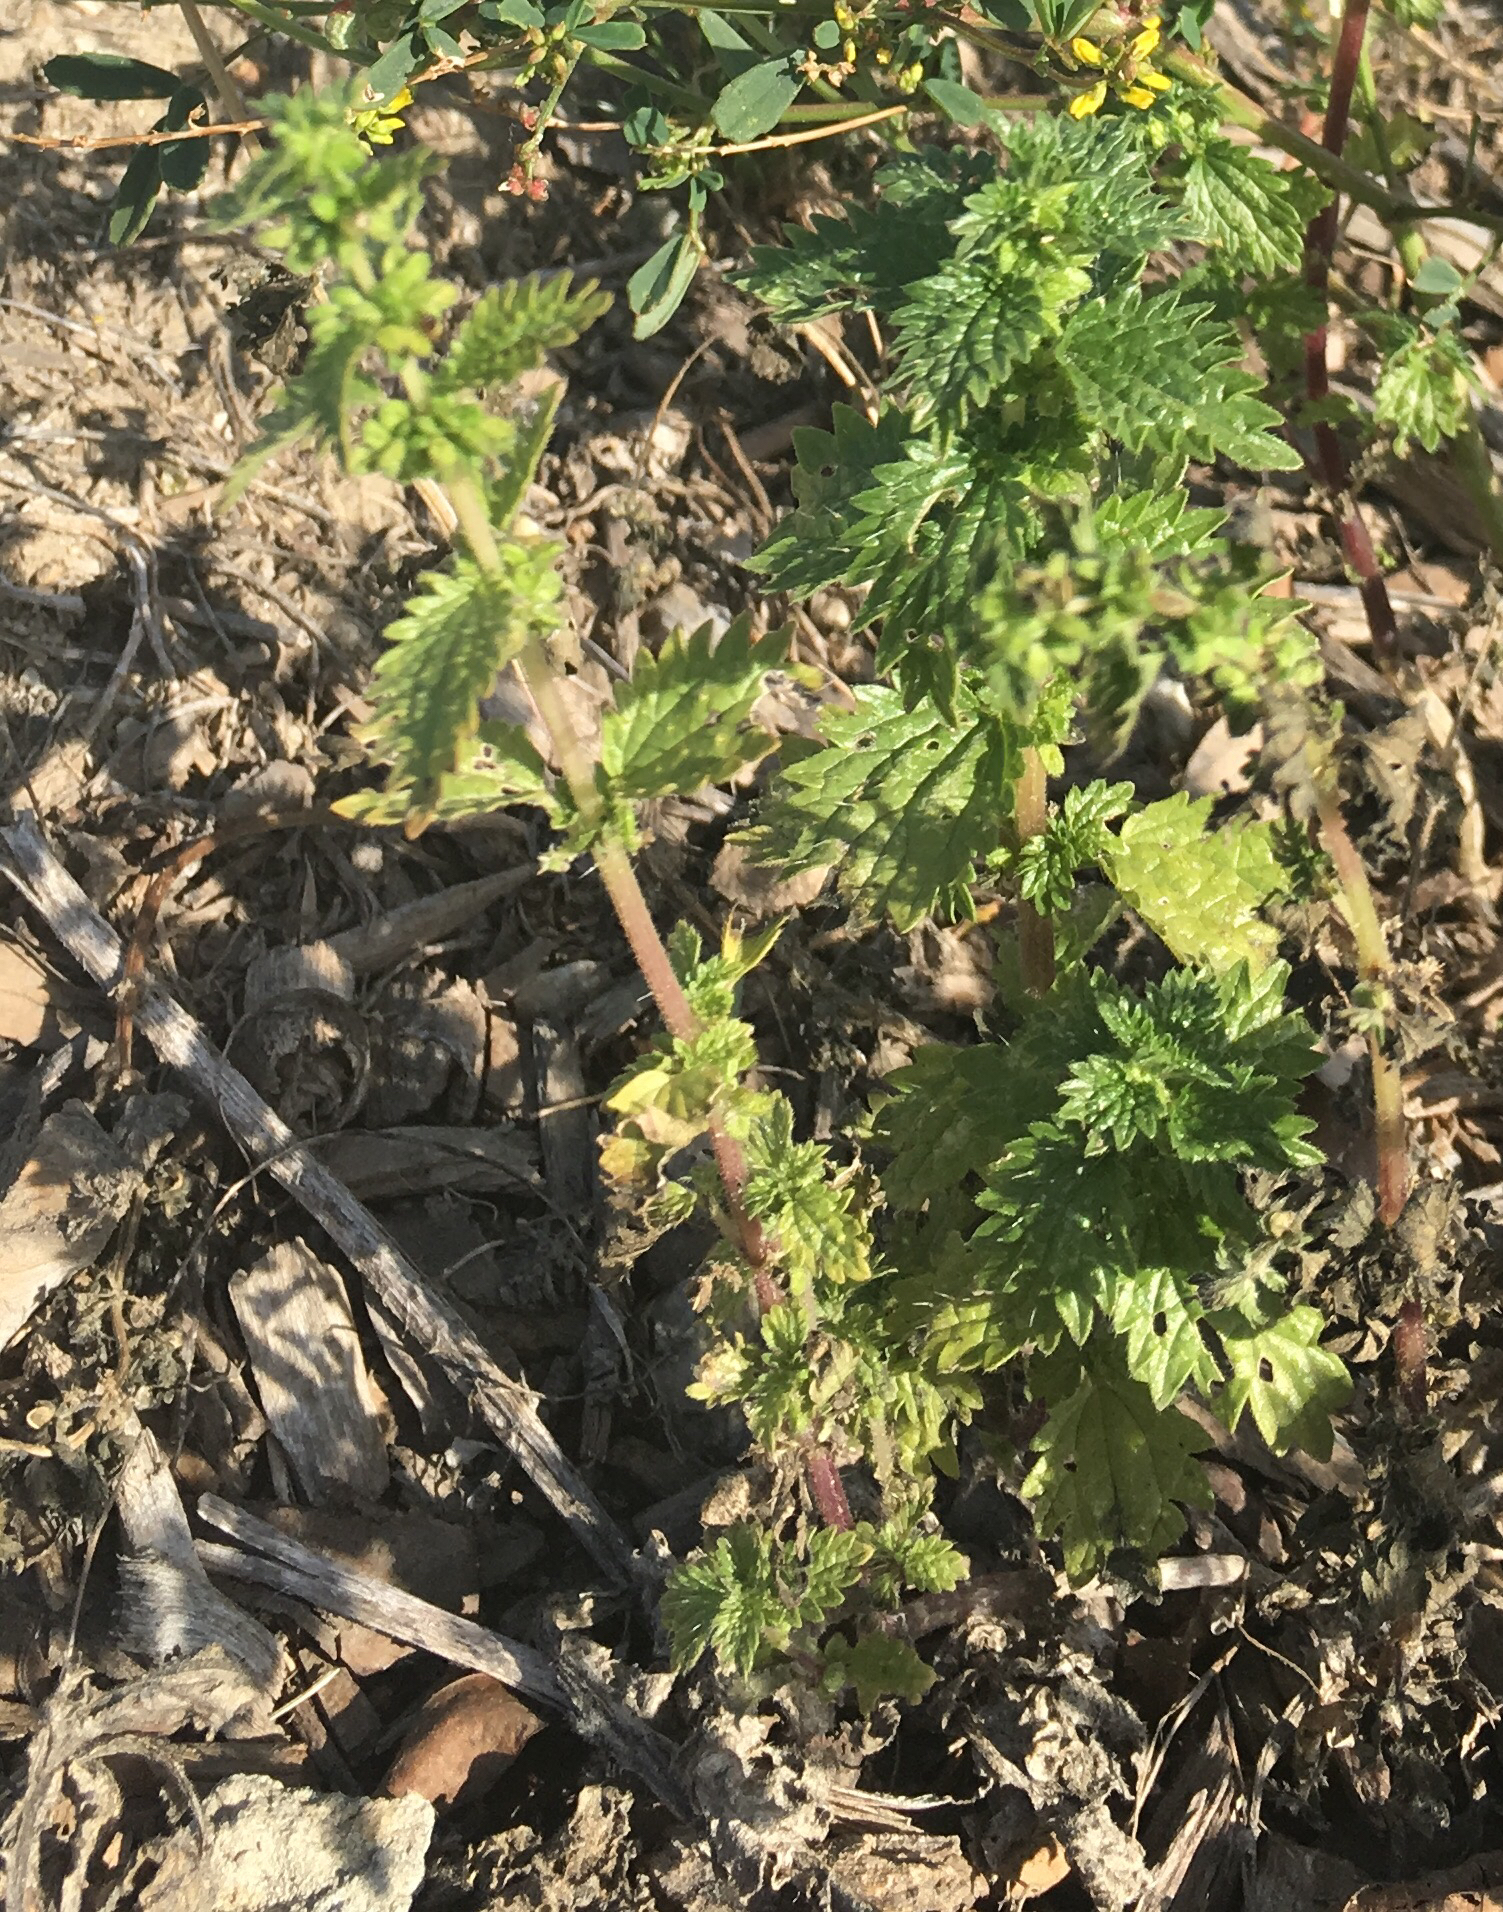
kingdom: Plantae
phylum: Tracheophyta
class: Magnoliopsida
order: Rosales
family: Urticaceae
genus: Urtica
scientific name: Urtica urens
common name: Dwarf nettle
